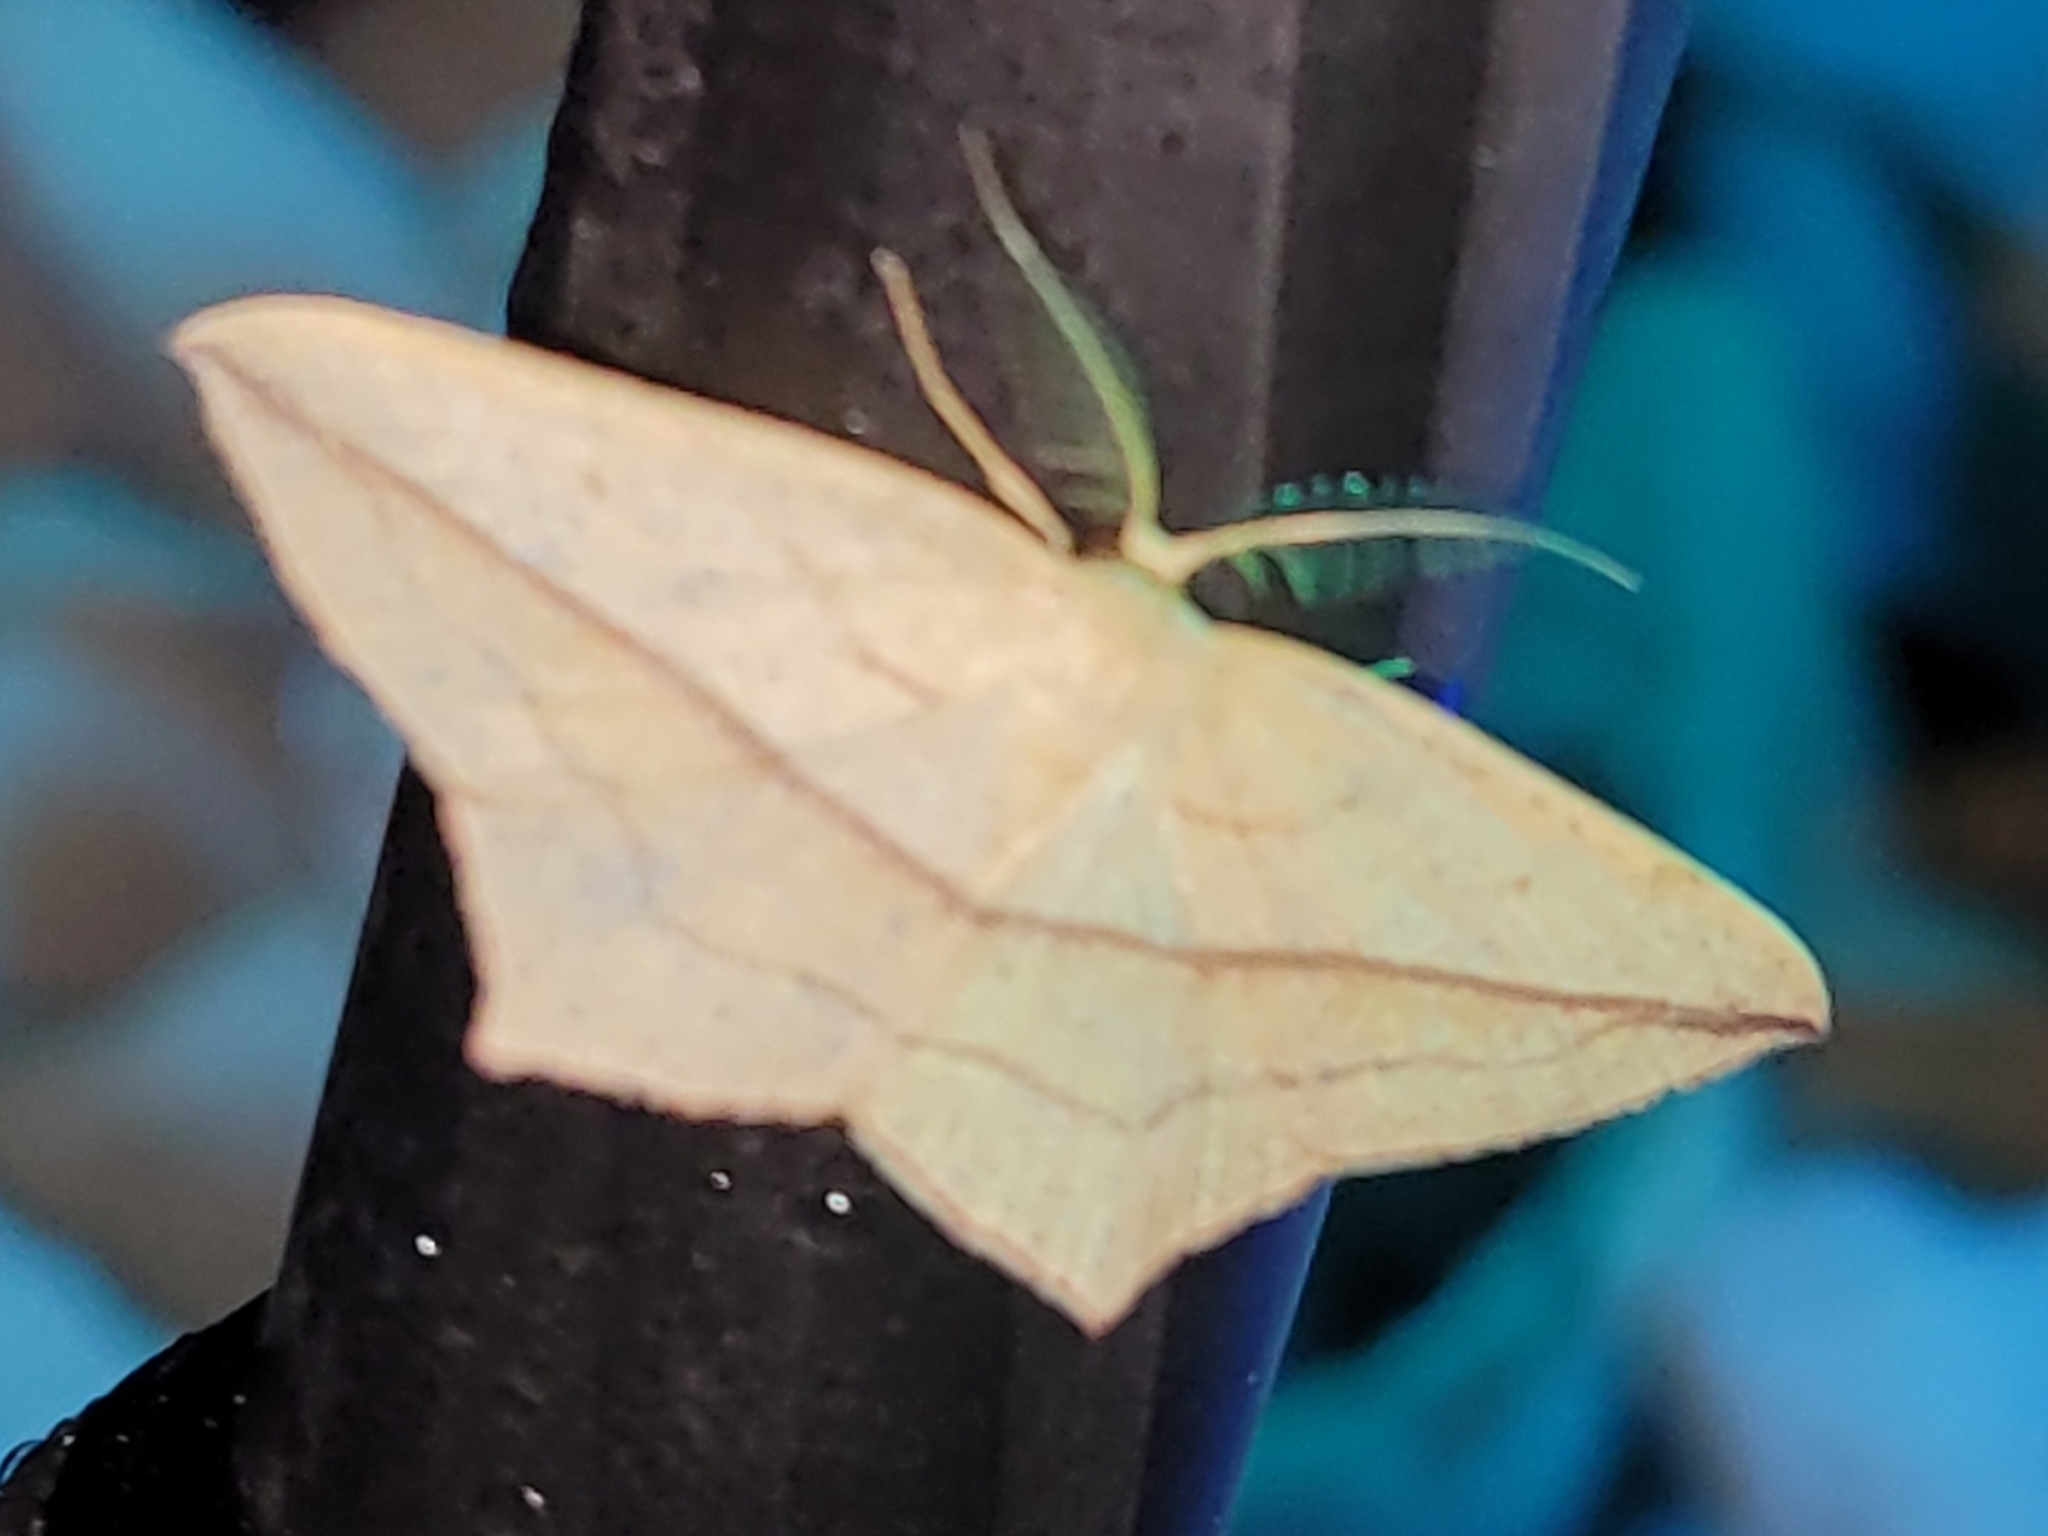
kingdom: Animalia
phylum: Arthropoda
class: Insecta
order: Lepidoptera
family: Geometridae
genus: Timandra
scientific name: Timandra comae
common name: Blood-vein
